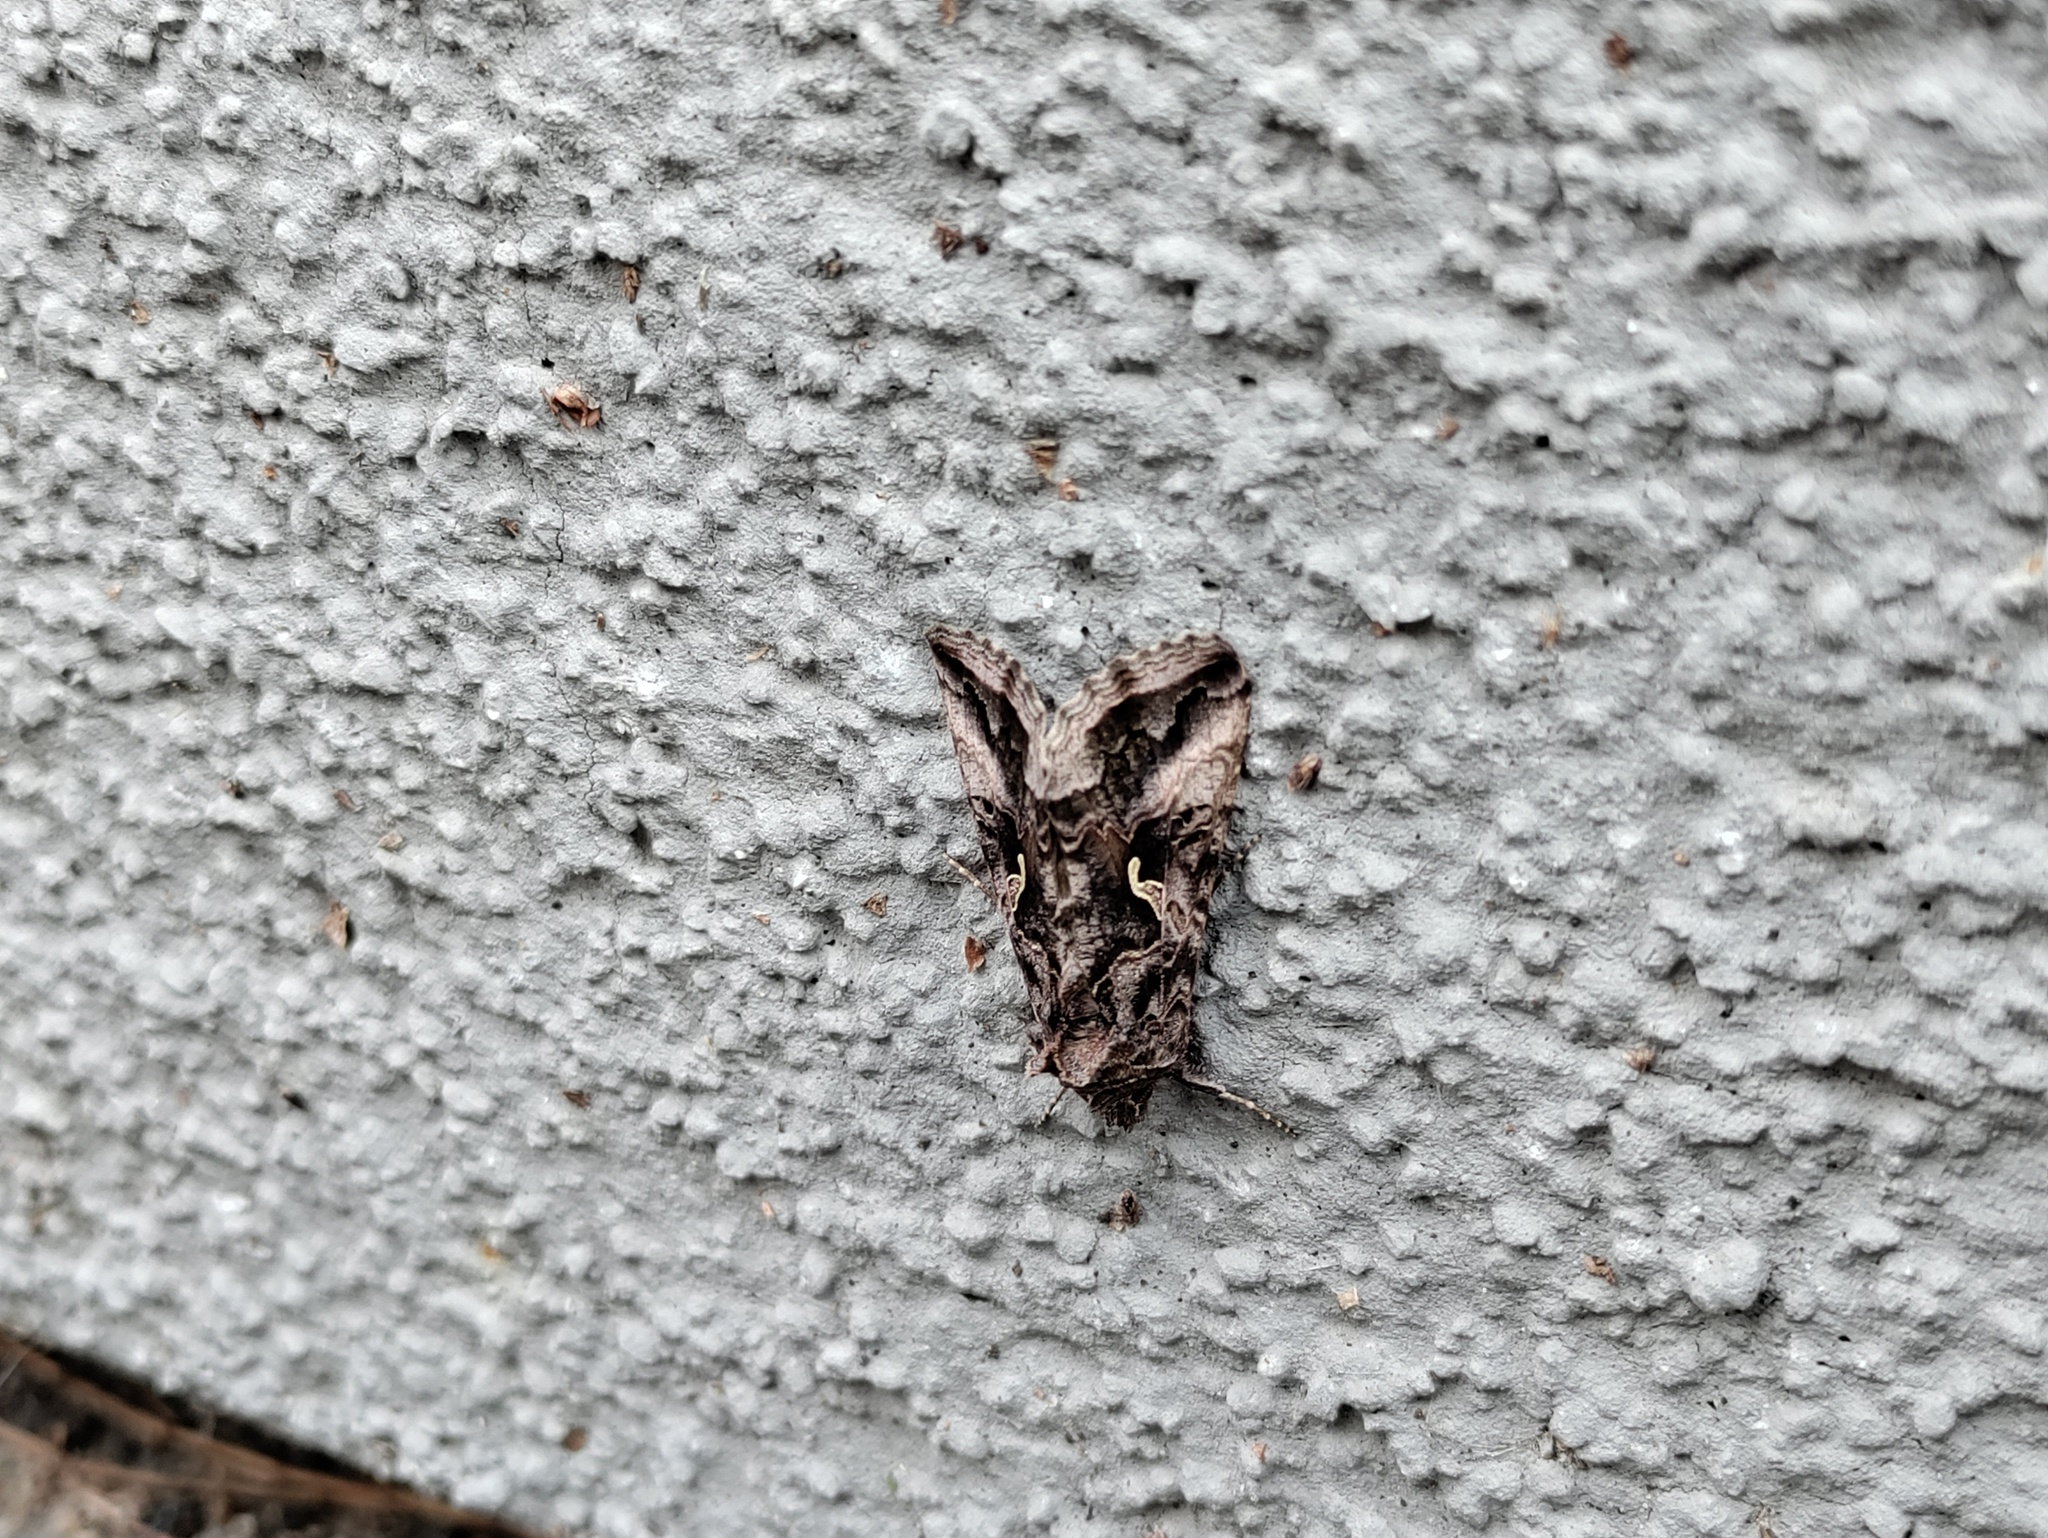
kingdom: Animalia
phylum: Arthropoda
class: Insecta
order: Lepidoptera
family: Noctuidae
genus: Autographa
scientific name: Autographa gamma
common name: Silver y
